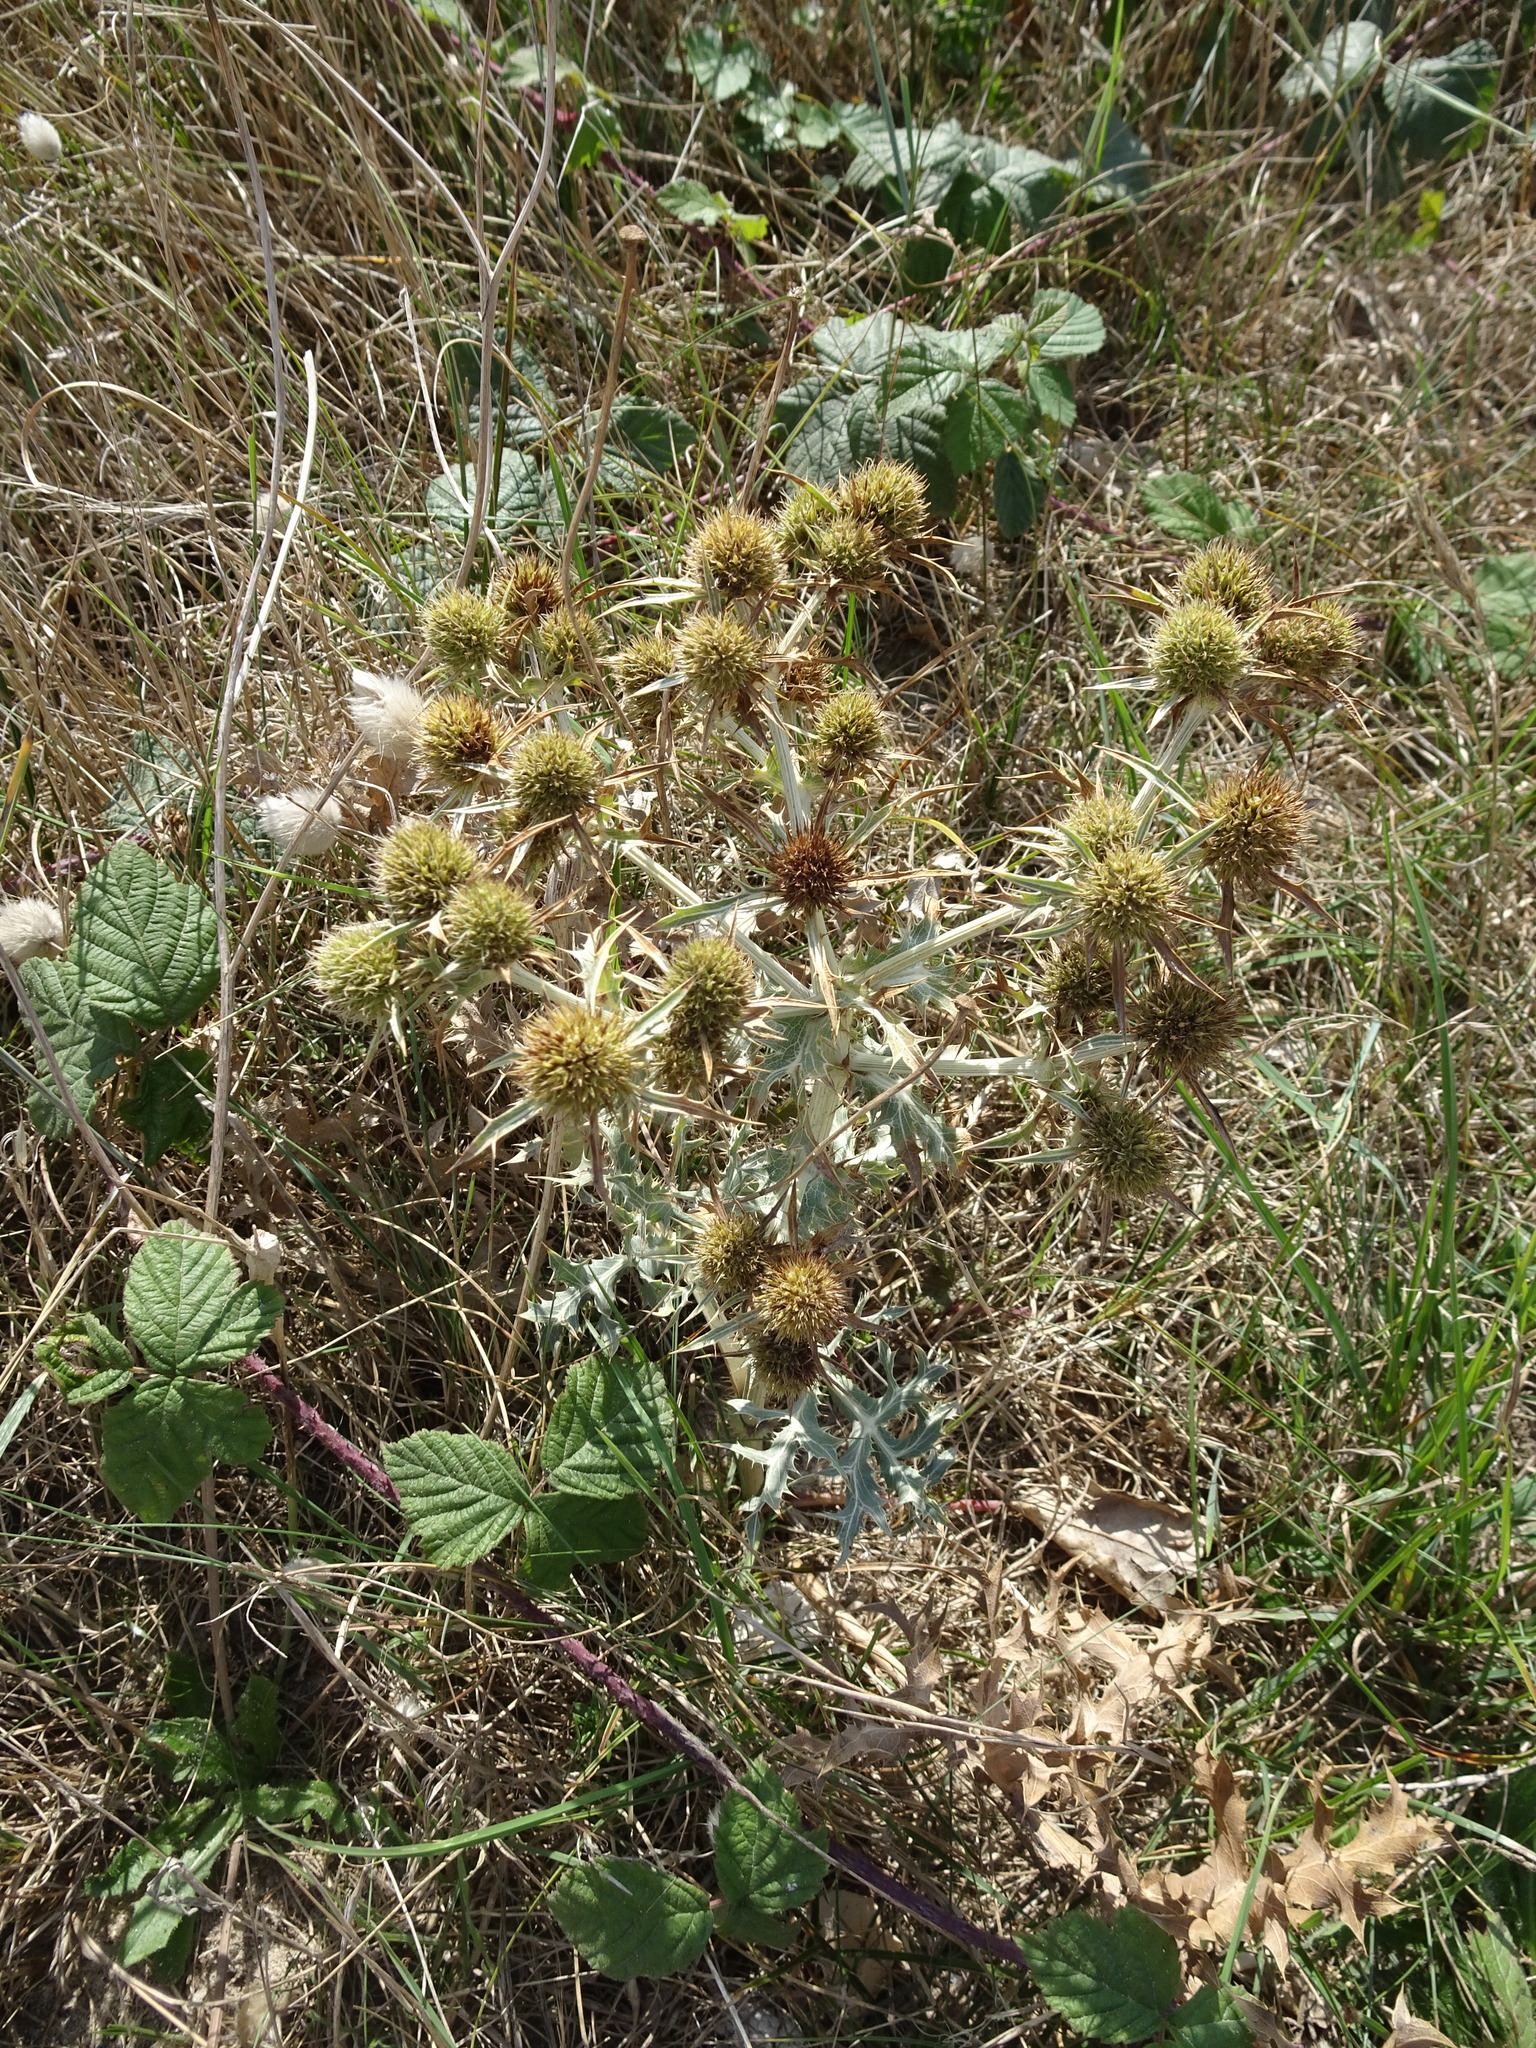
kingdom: Plantae
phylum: Tracheophyta
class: Magnoliopsida
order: Apiales
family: Apiaceae
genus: Eryngium
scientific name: Eryngium campestre
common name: Field eryngo
